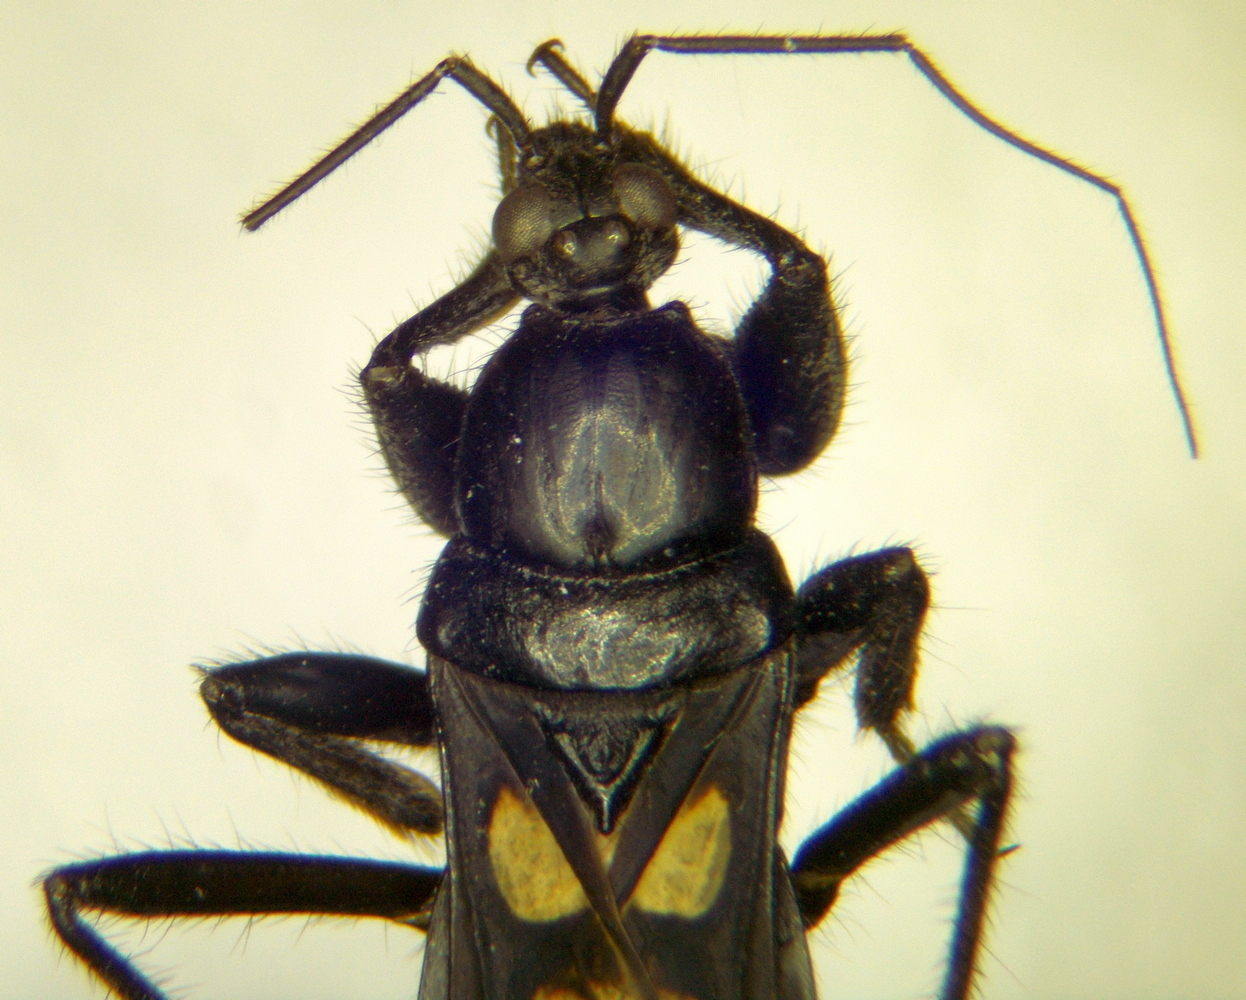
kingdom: Animalia
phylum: Arthropoda
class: Insecta
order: Hemiptera
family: Reduviidae
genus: Ectomocoris
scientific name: Ectomocoris caucasicus
